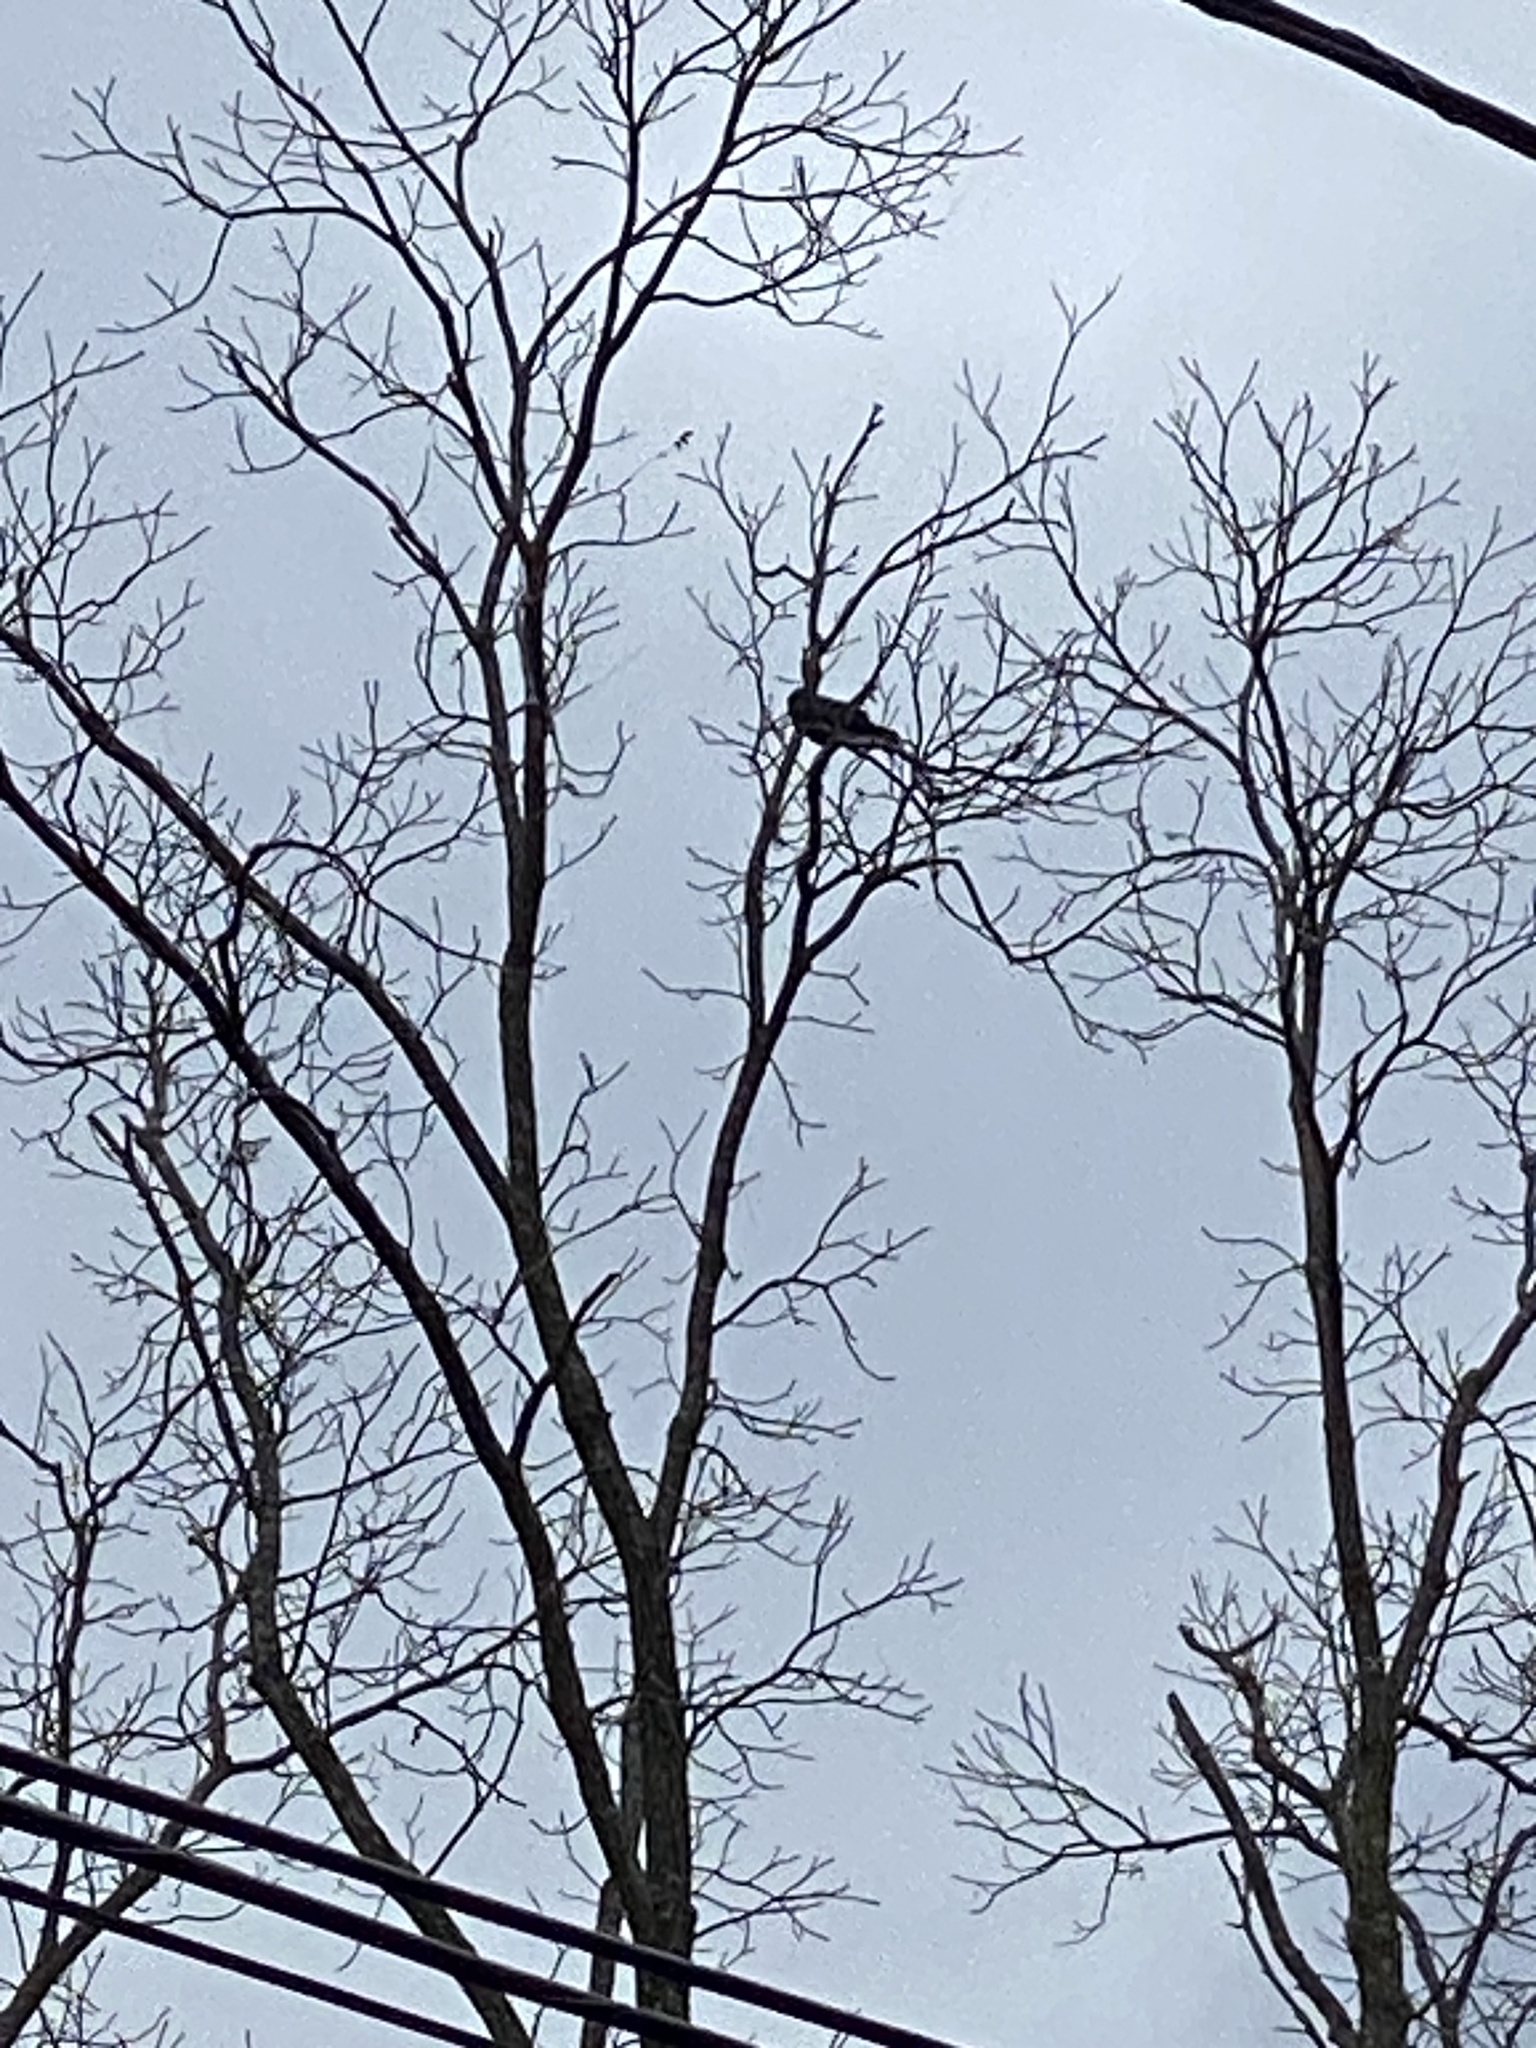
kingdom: Animalia
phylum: Chordata
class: Aves
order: Passeriformes
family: Corvidae
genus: Corvus
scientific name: Corvus brachyrhynchos
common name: American crow
